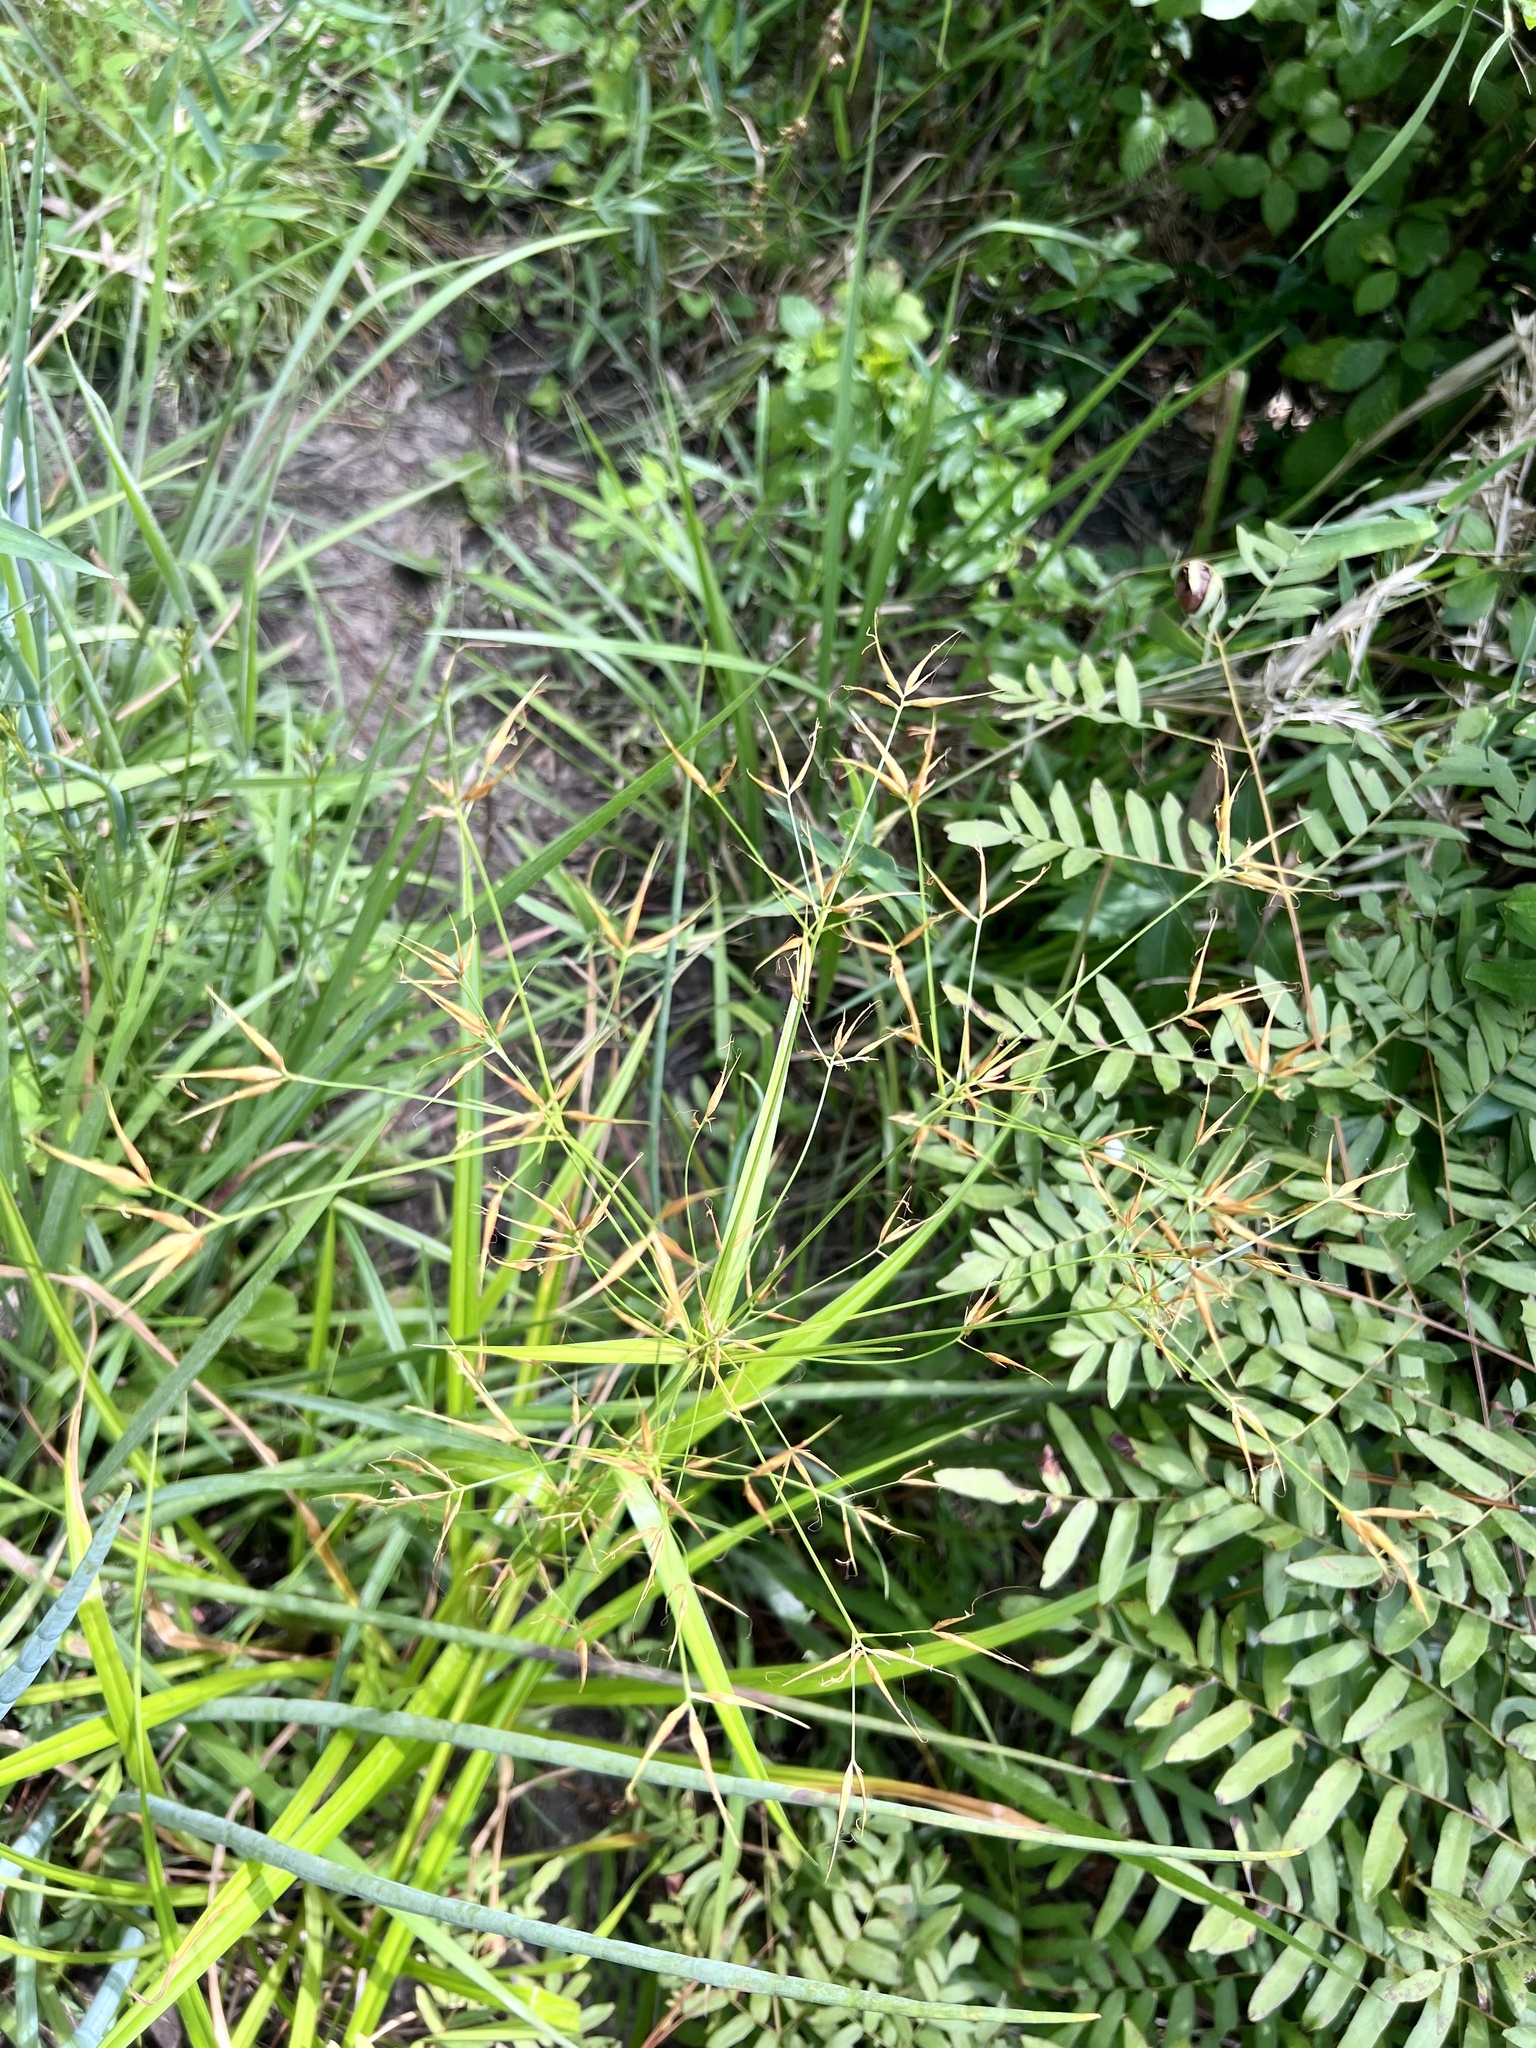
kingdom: Plantae
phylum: Tracheophyta
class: Liliopsida
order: Poales
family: Cyperaceae
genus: Rhynchospora
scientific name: Rhynchospora corniculata
